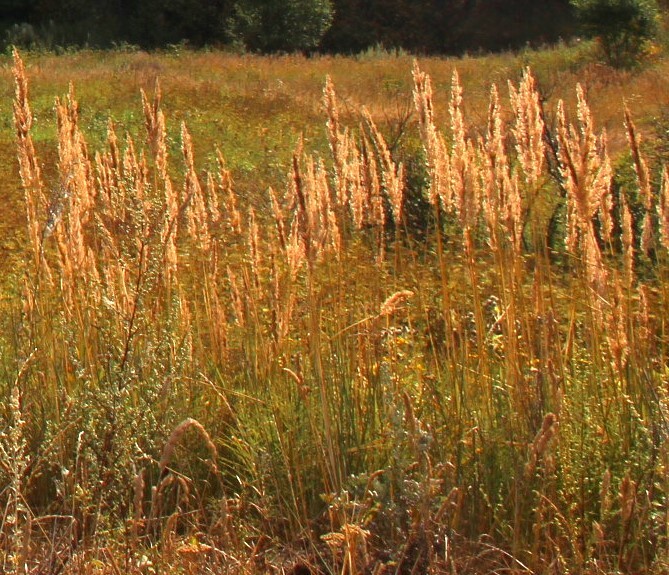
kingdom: Plantae
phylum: Tracheophyta
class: Liliopsida
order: Poales
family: Poaceae
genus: Calamagrostis
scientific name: Calamagrostis epigejos
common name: Wood small-reed
